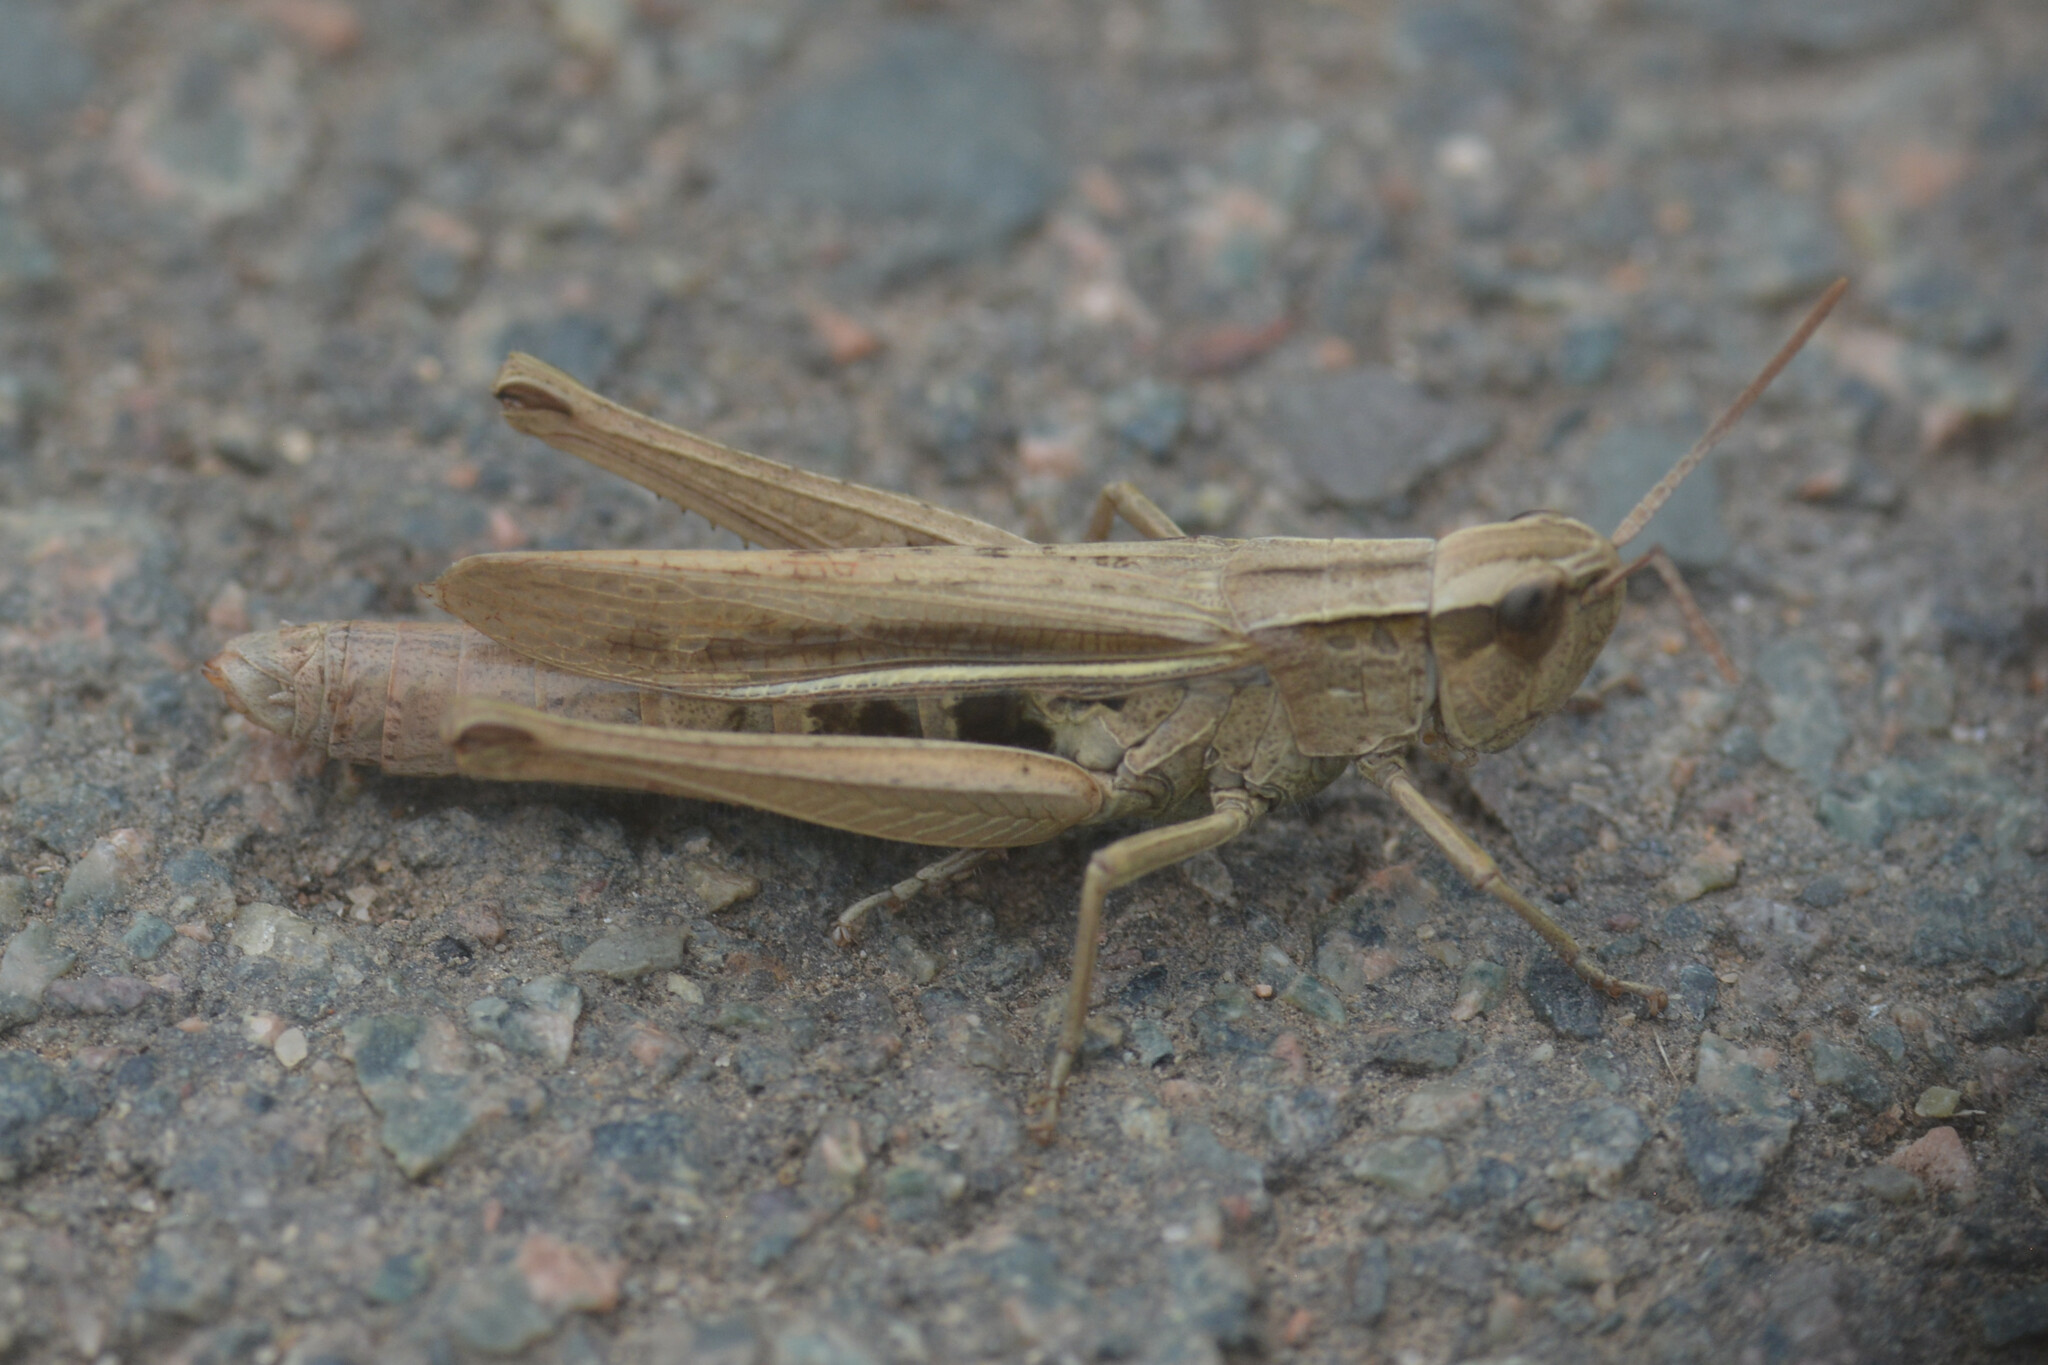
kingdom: Animalia
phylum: Arthropoda
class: Insecta
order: Orthoptera
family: Acrididae
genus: Chorthippus
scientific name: Chorthippus albomarginatus
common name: Lesser marsh grasshopper
